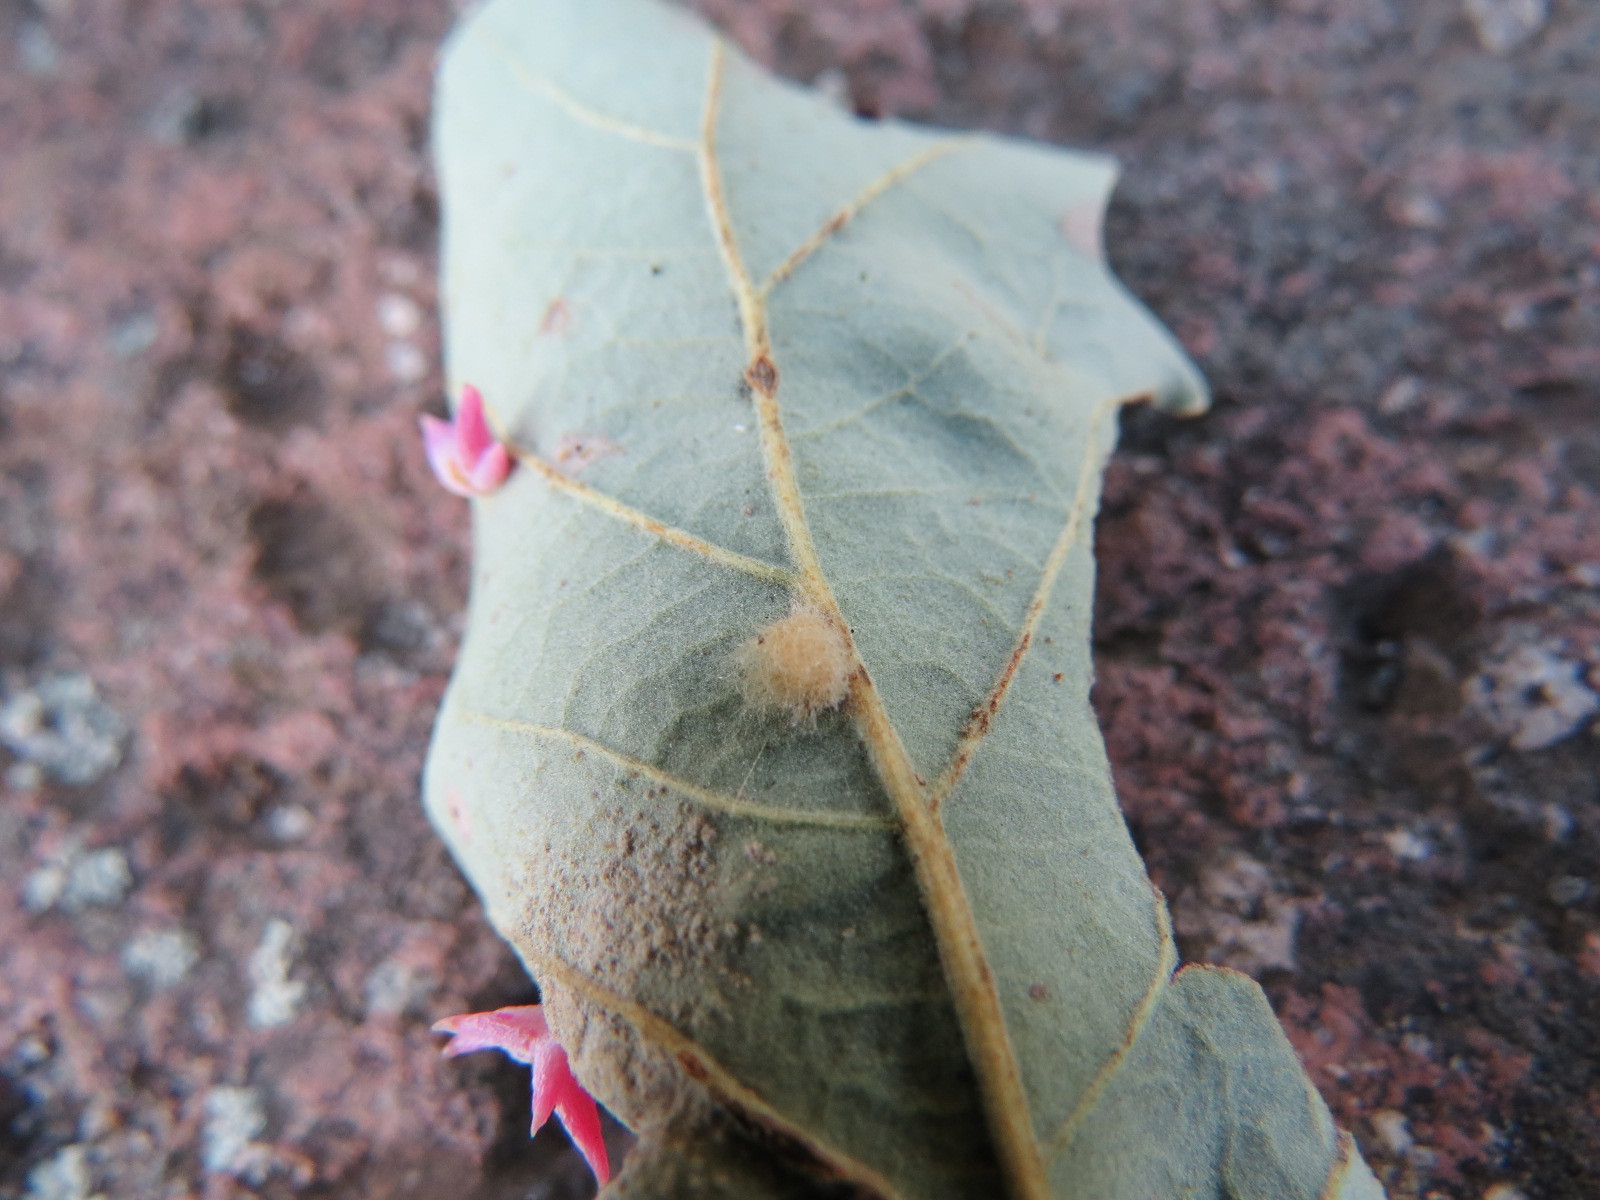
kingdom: Animalia
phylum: Arthropoda
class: Insecta
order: Hymenoptera
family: Cynipidae
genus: Andricus
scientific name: Andricus Druon fullawayi
